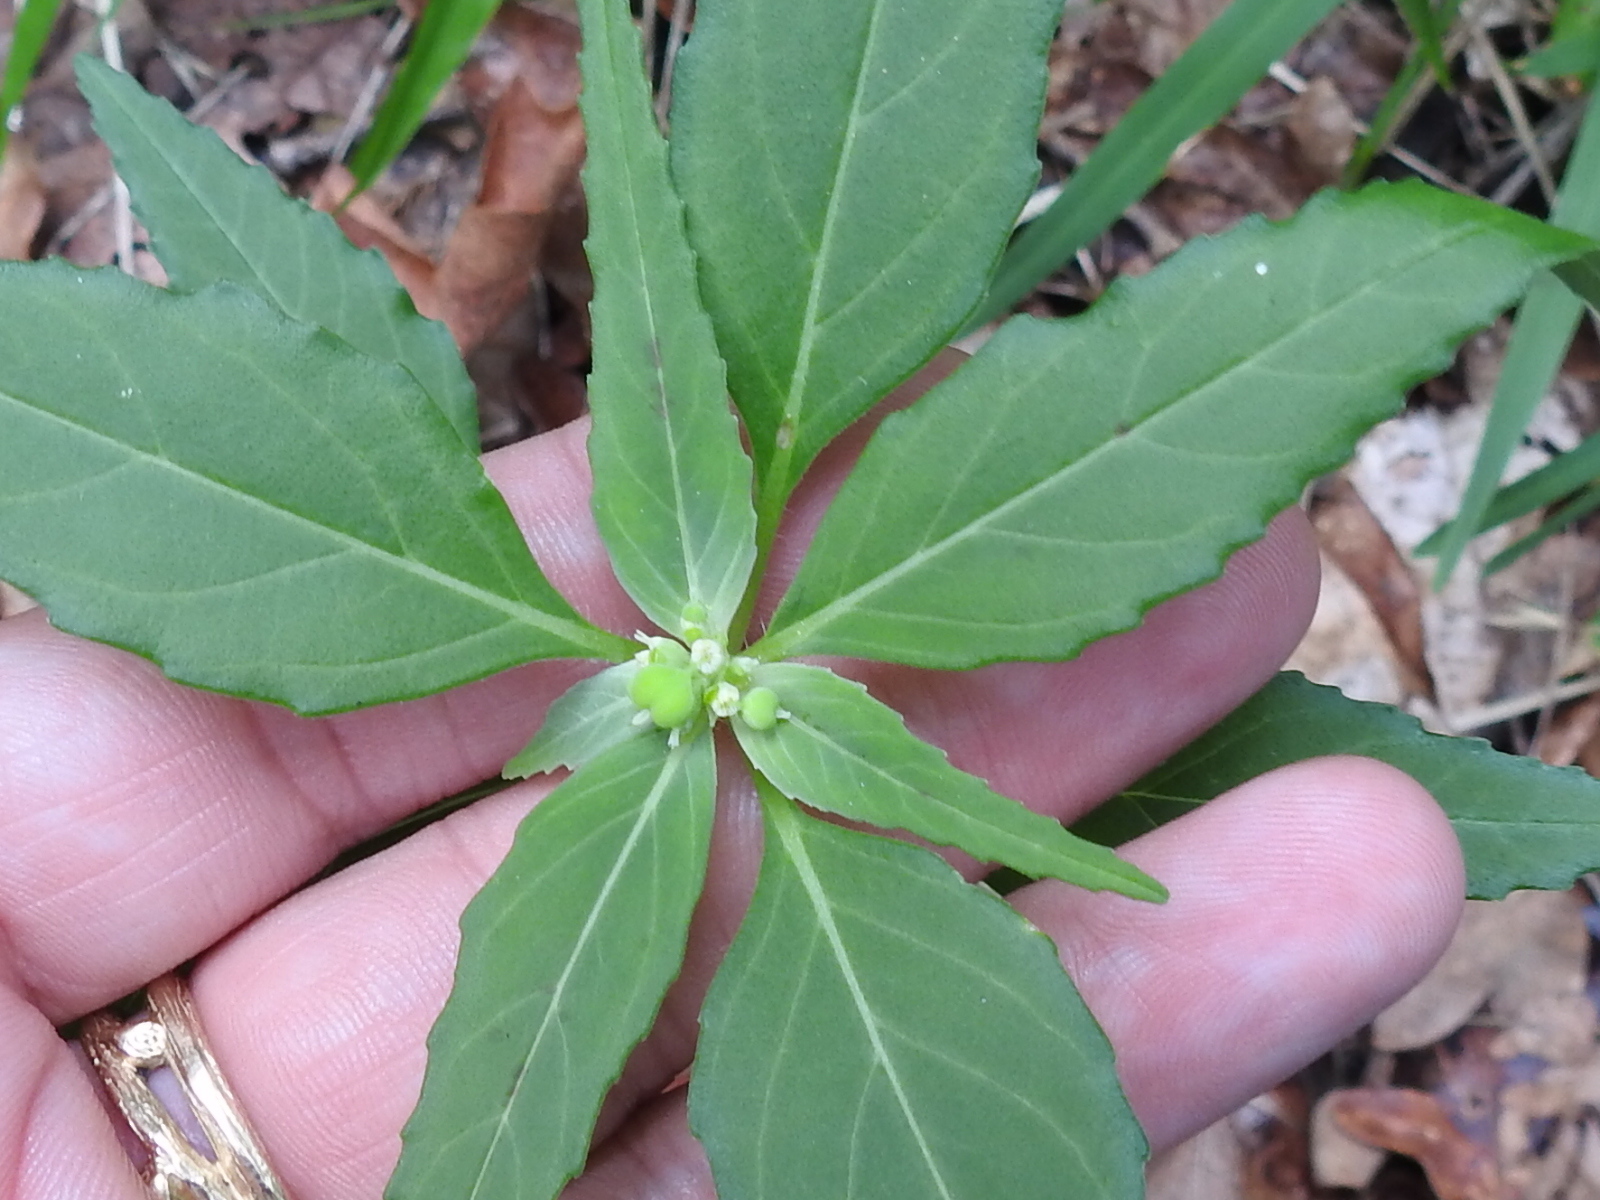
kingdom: Plantae
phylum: Tracheophyta
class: Magnoliopsida
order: Malpighiales
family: Euphorbiaceae
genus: Euphorbia
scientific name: Euphorbia dentata
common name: Dentate spurge
